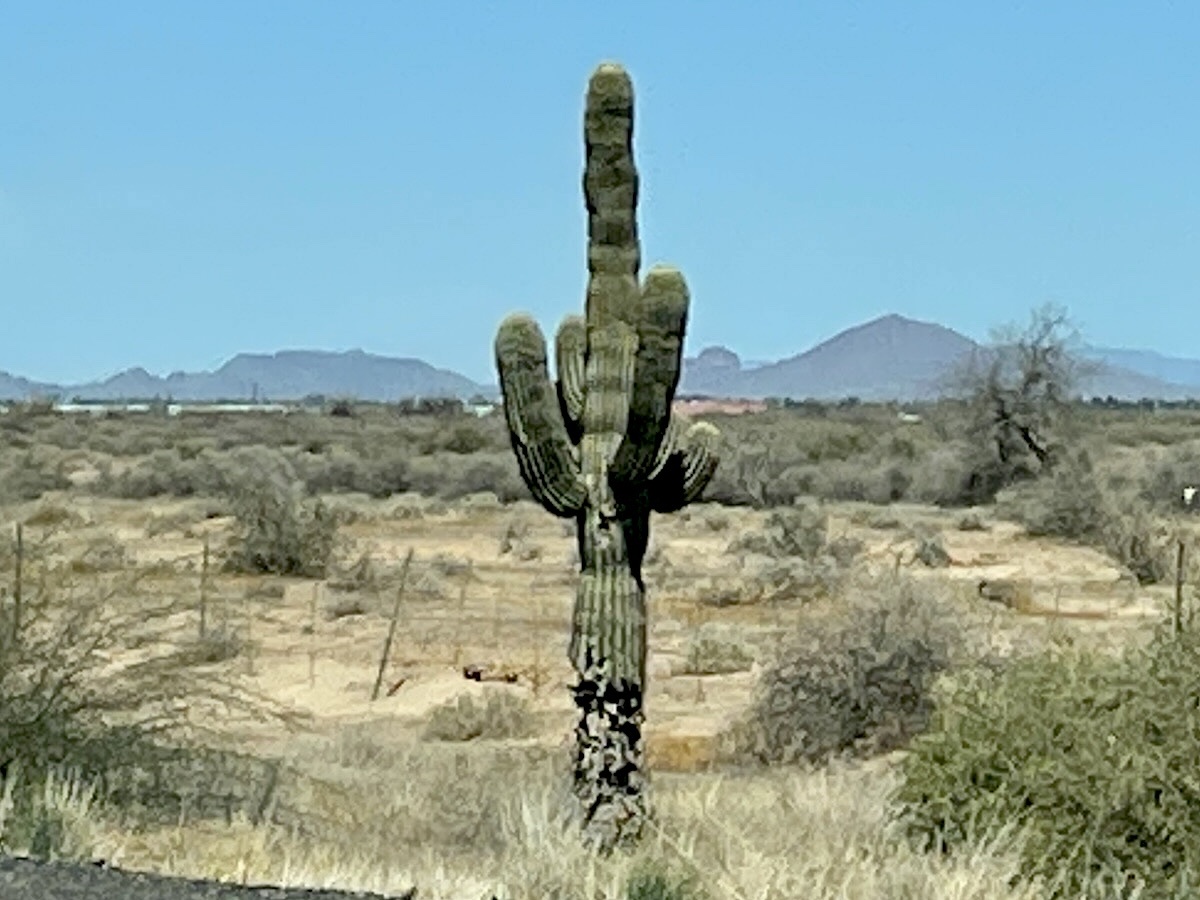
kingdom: Plantae
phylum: Tracheophyta
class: Magnoliopsida
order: Caryophyllales
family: Cactaceae
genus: Carnegiea
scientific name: Carnegiea gigantea
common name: Saguaro
